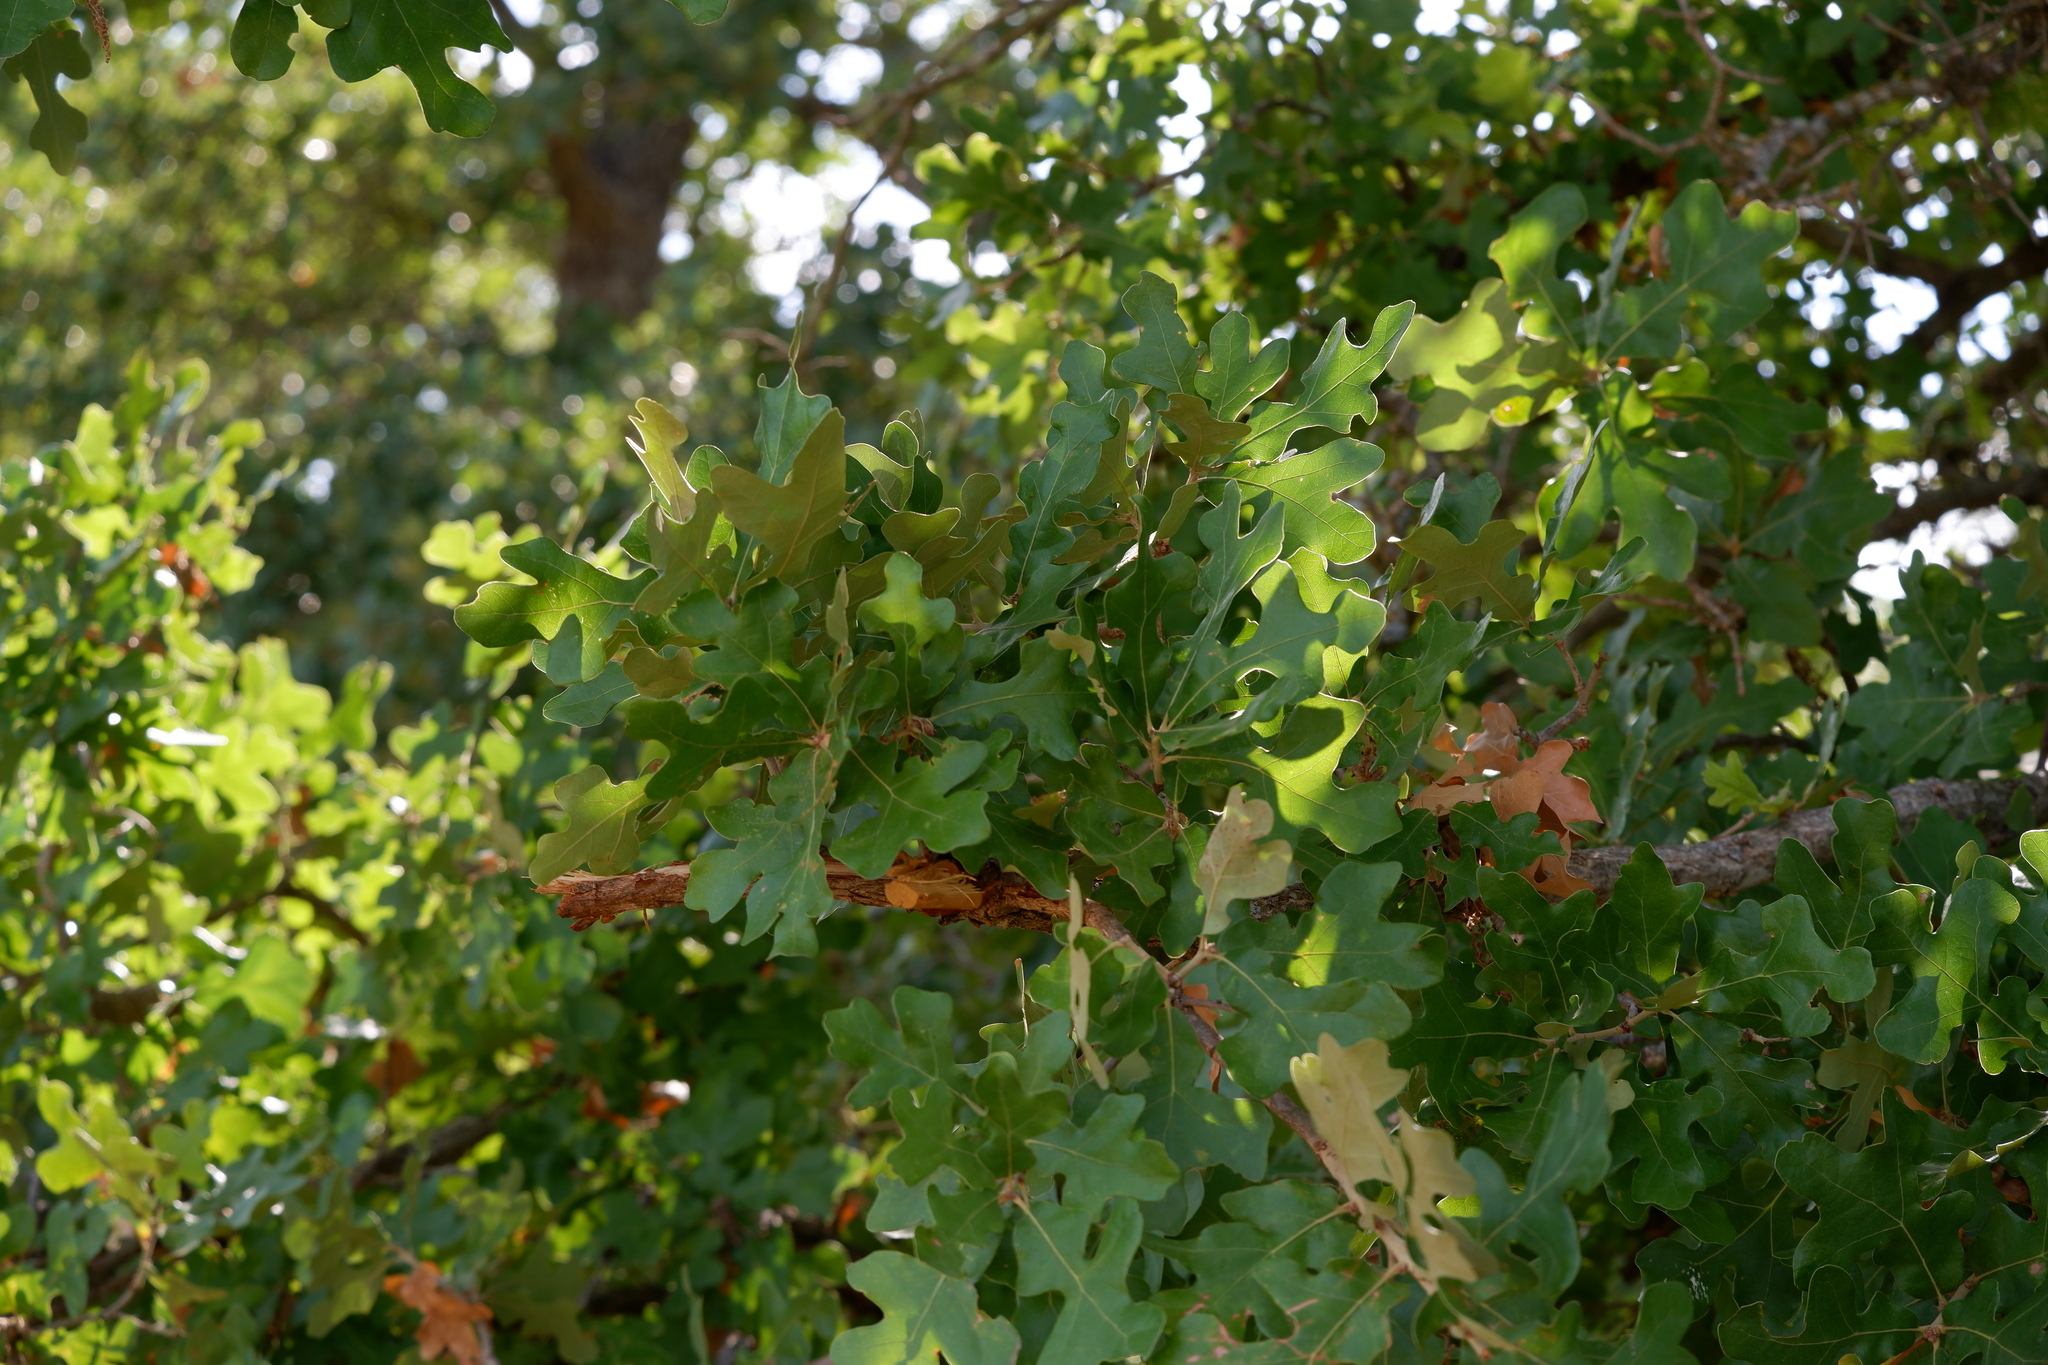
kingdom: Plantae
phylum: Tracheophyta
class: Magnoliopsida
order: Fagales
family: Fagaceae
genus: Quercus
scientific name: Quercus stellata
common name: Post oak
